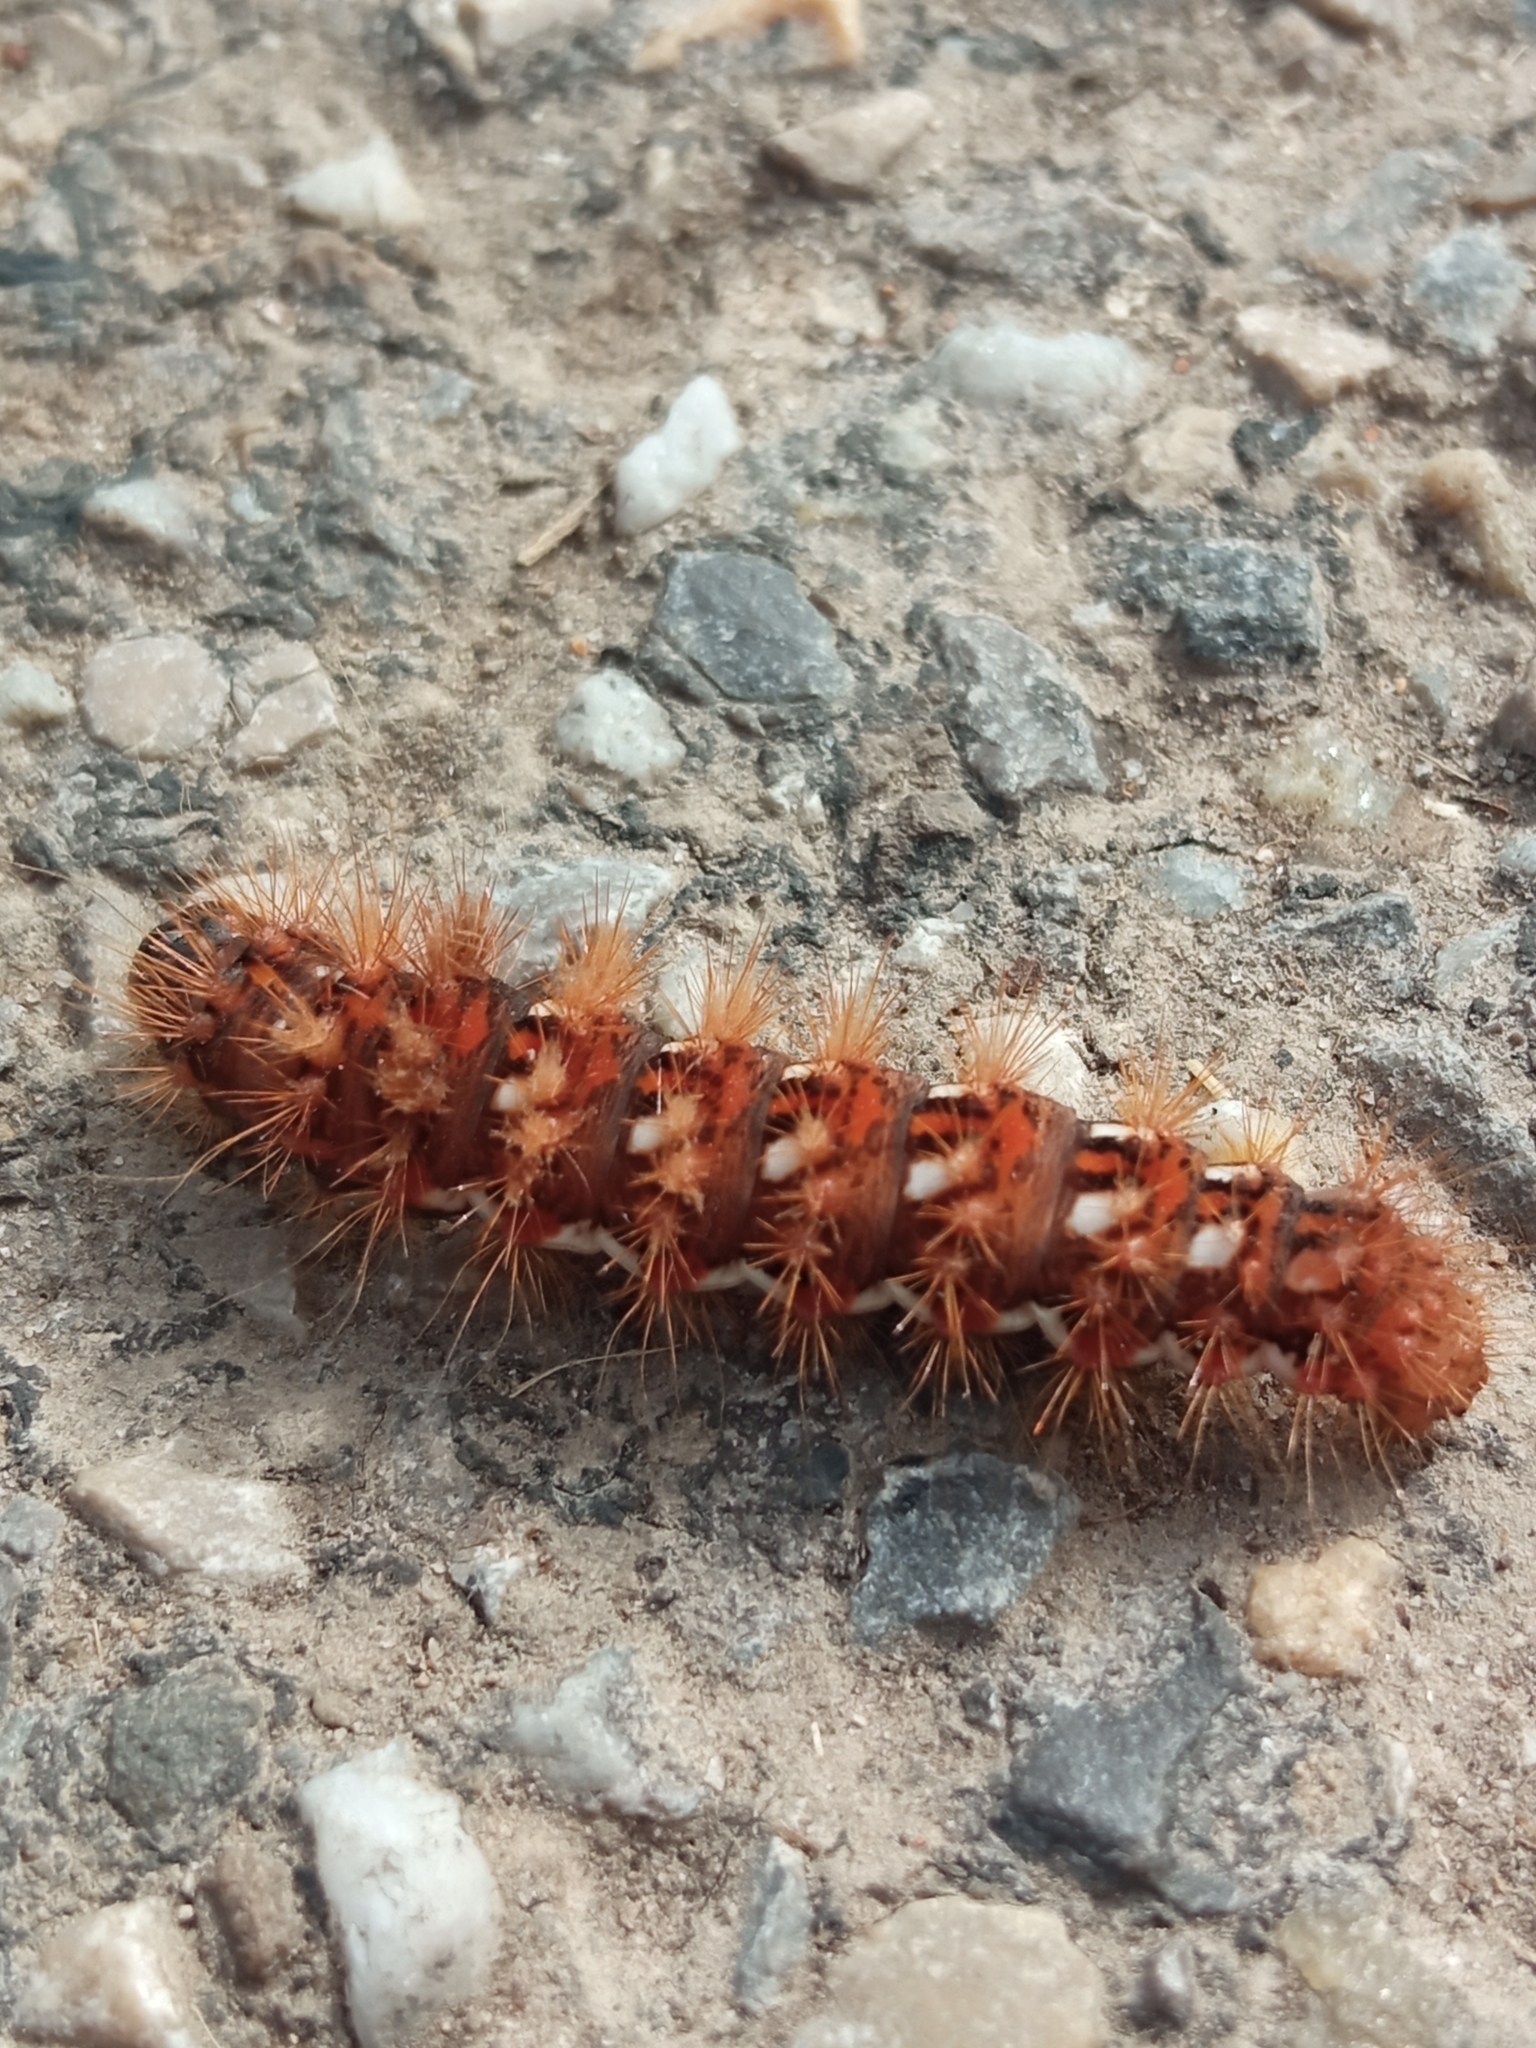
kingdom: Animalia
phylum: Arthropoda
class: Insecta
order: Lepidoptera
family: Noctuidae
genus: Acronicta
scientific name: Acronicta rumicis
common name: Knot grass
